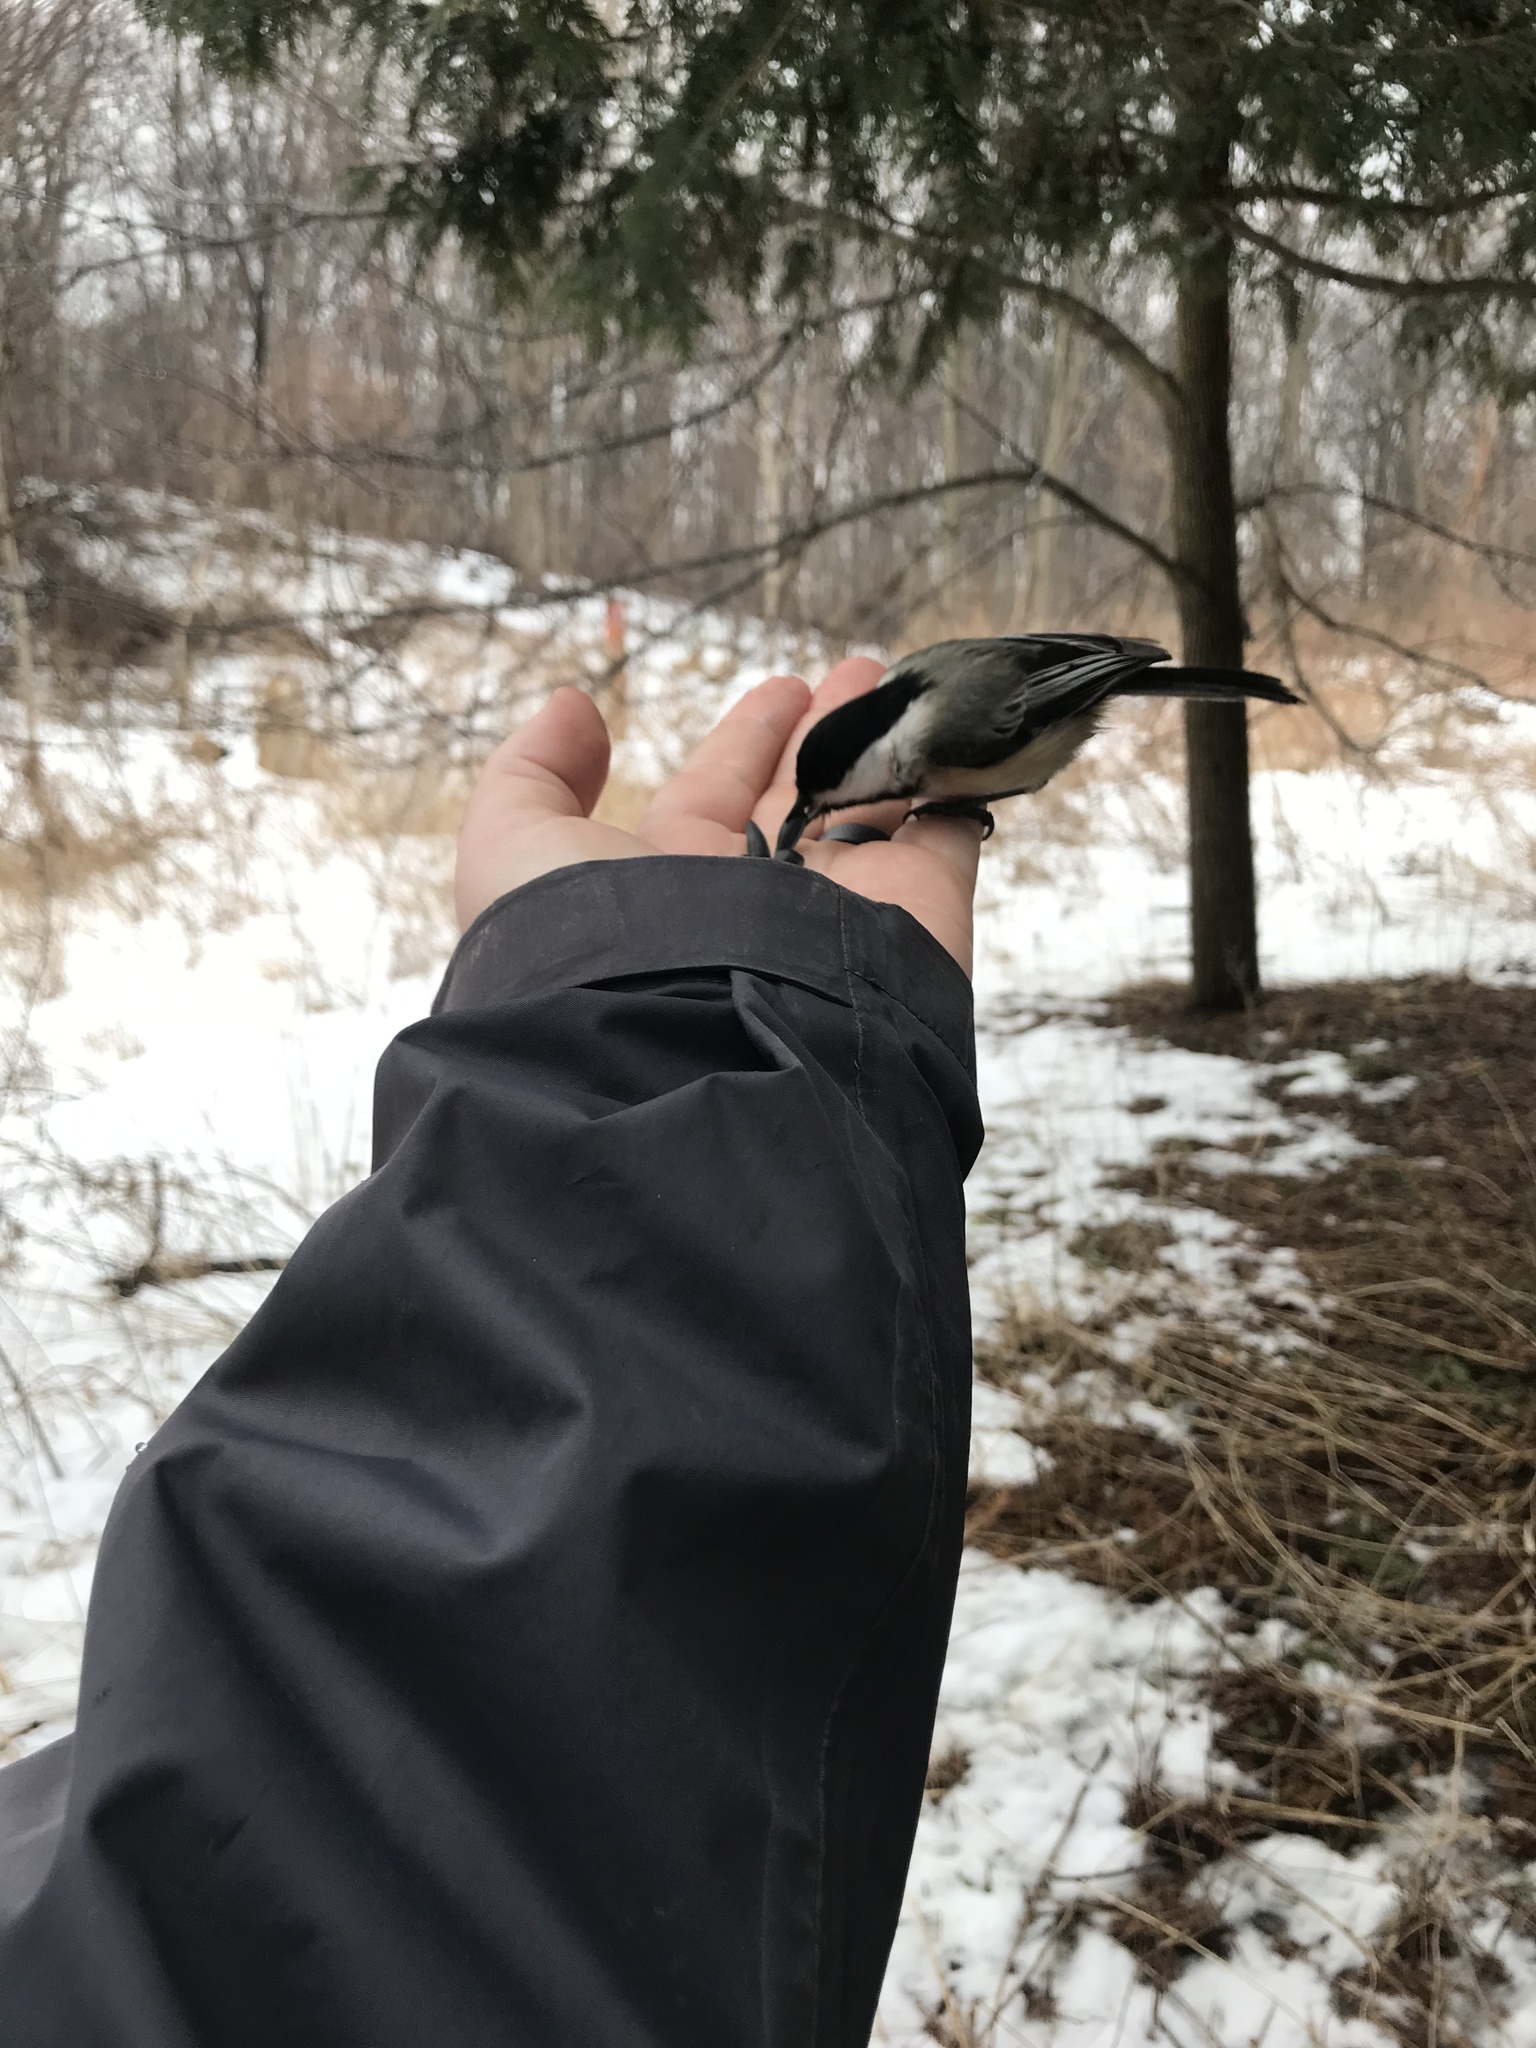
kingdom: Animalia
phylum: Chordata
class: Aves
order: Passeriformes
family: Paridae
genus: Poecile
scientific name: Poecile atricapillus
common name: Black-capped chickadee
